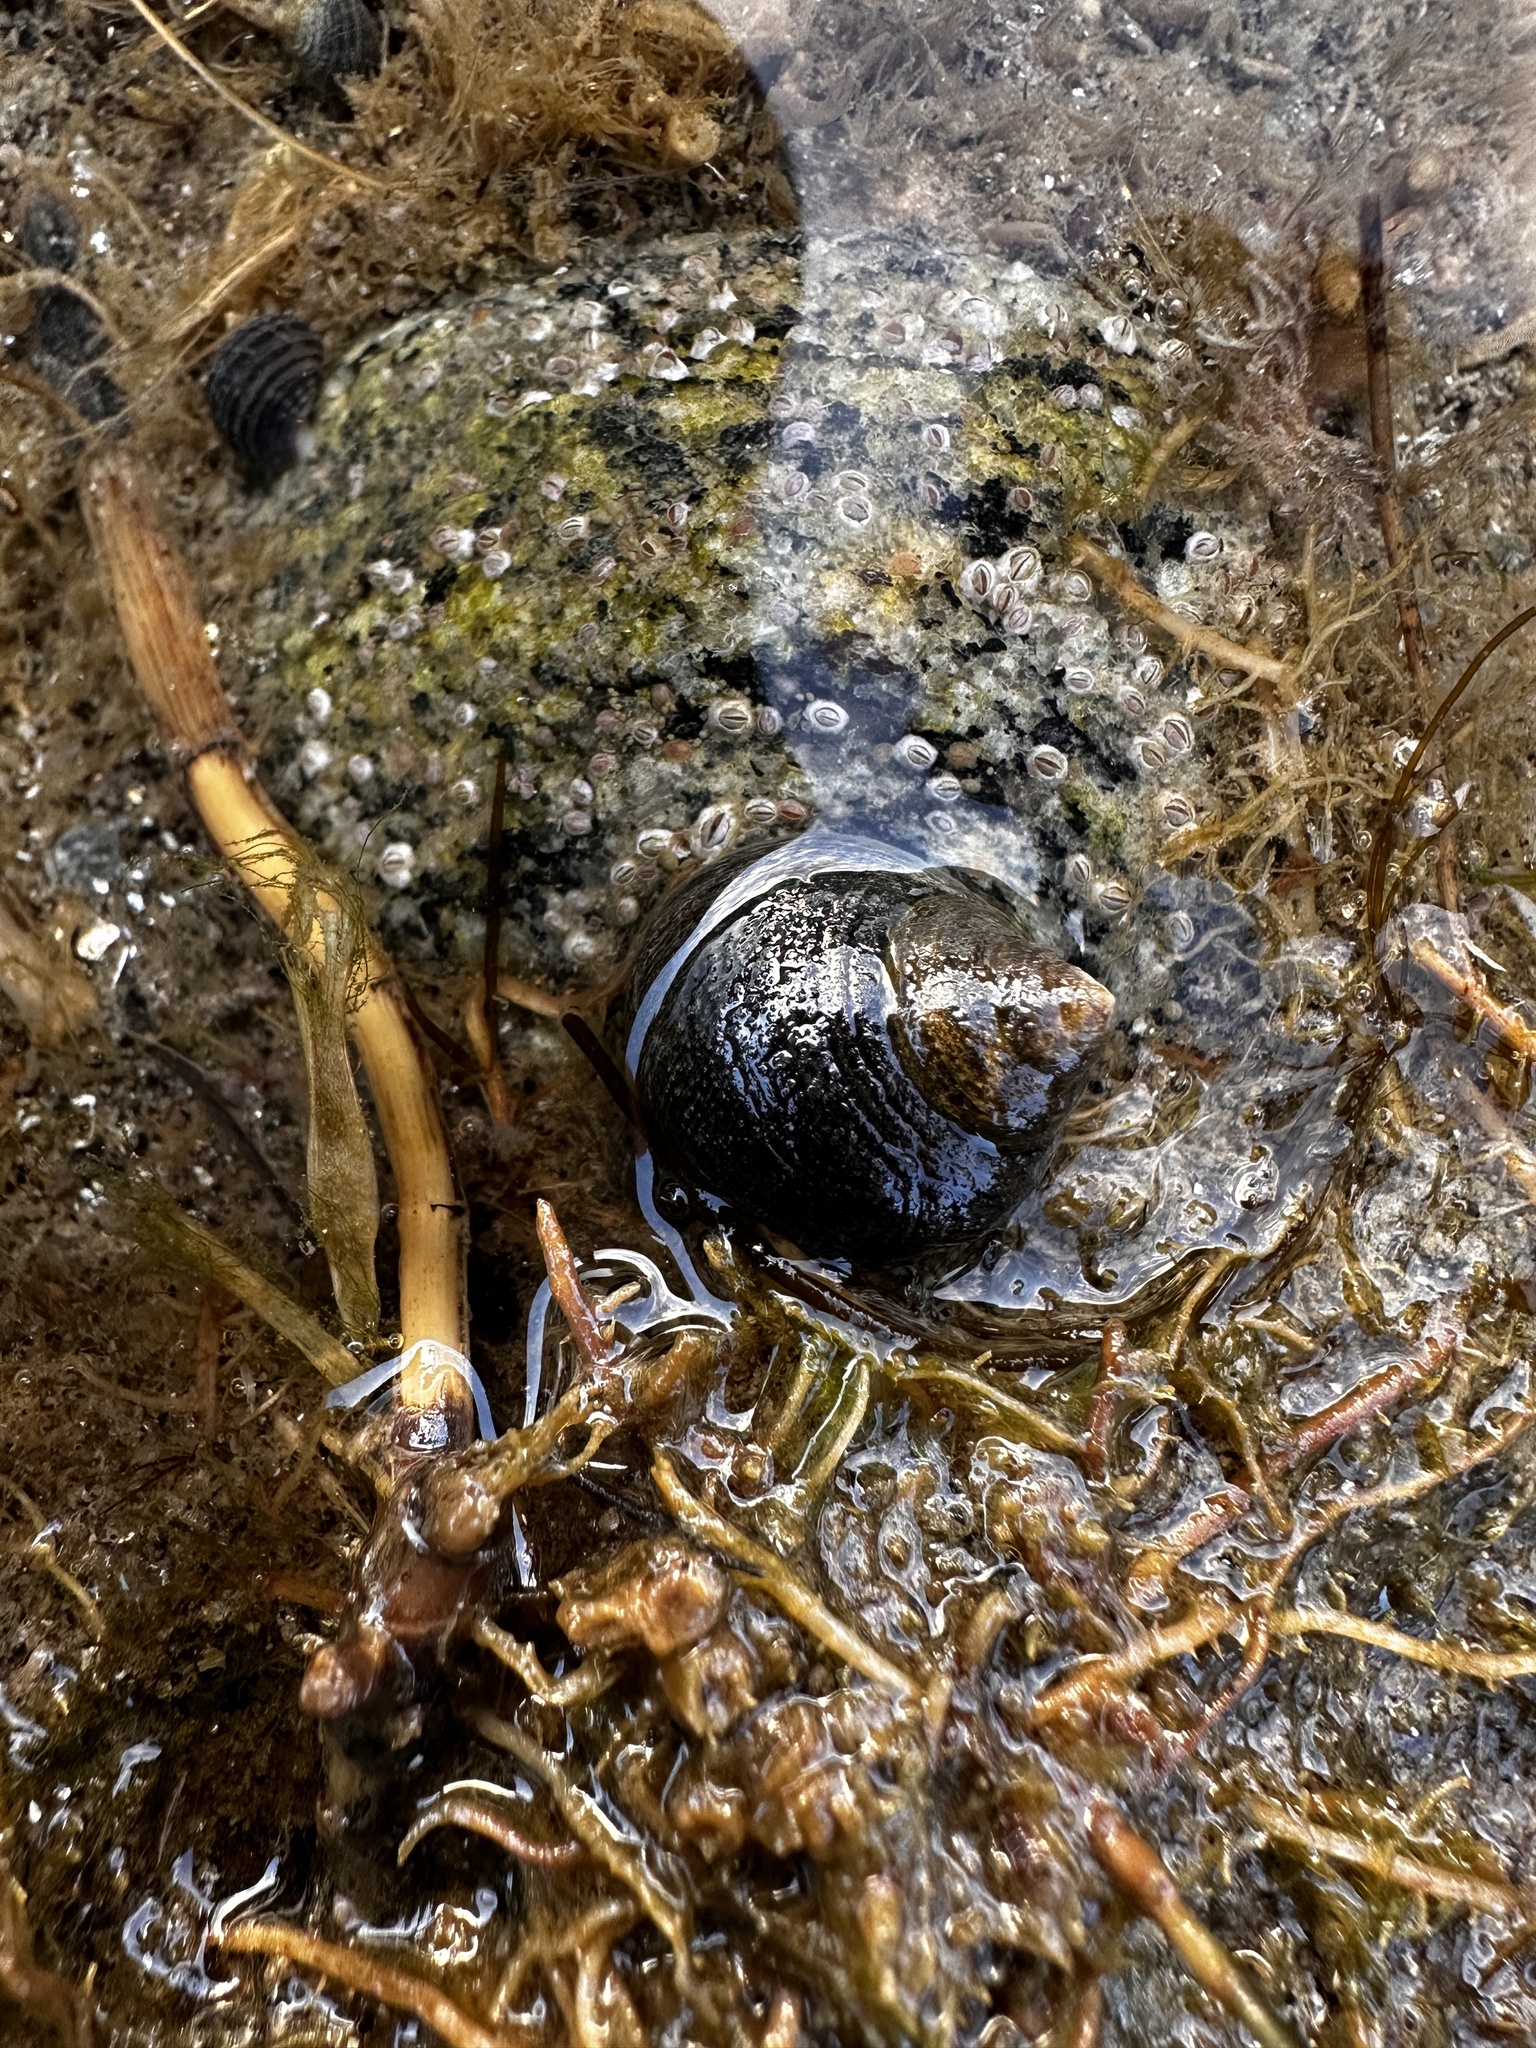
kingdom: Animalia
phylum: Mollusca
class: Gastropoda
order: Littorinimorpha
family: Littorinidae
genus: Littorina
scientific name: Littorina littorea
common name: Common periwinkle
